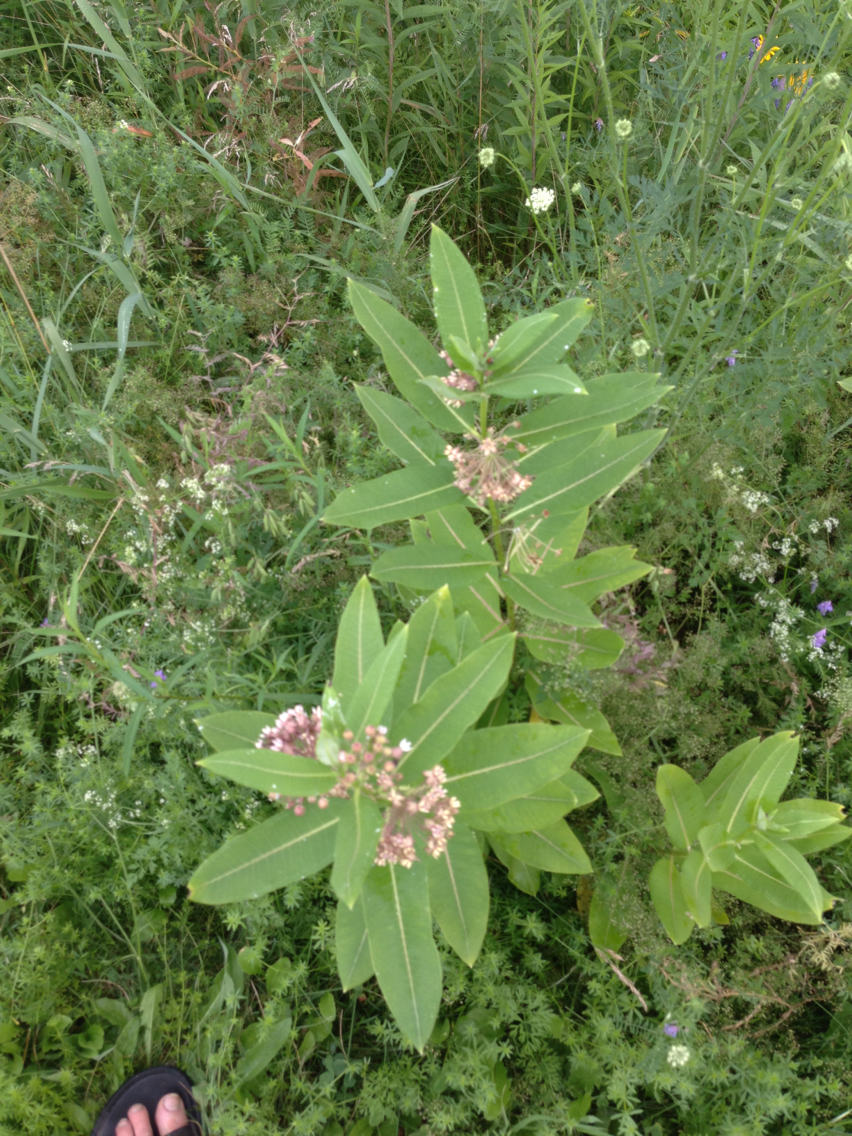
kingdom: Plantae
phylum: Tracheophyta
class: Magnoliopsida
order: Gentianales
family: Apocynaceae
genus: Asclepias
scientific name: Asclepias syriaca
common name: Common milkweed
